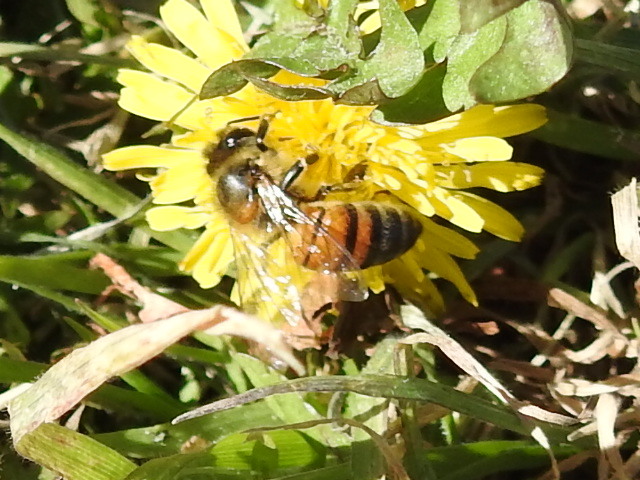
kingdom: Animalia
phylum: Arthropoda
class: Insecta
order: Hymenoptera
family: Apidae
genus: Apis
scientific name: Apis mellifera
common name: Honey bee
